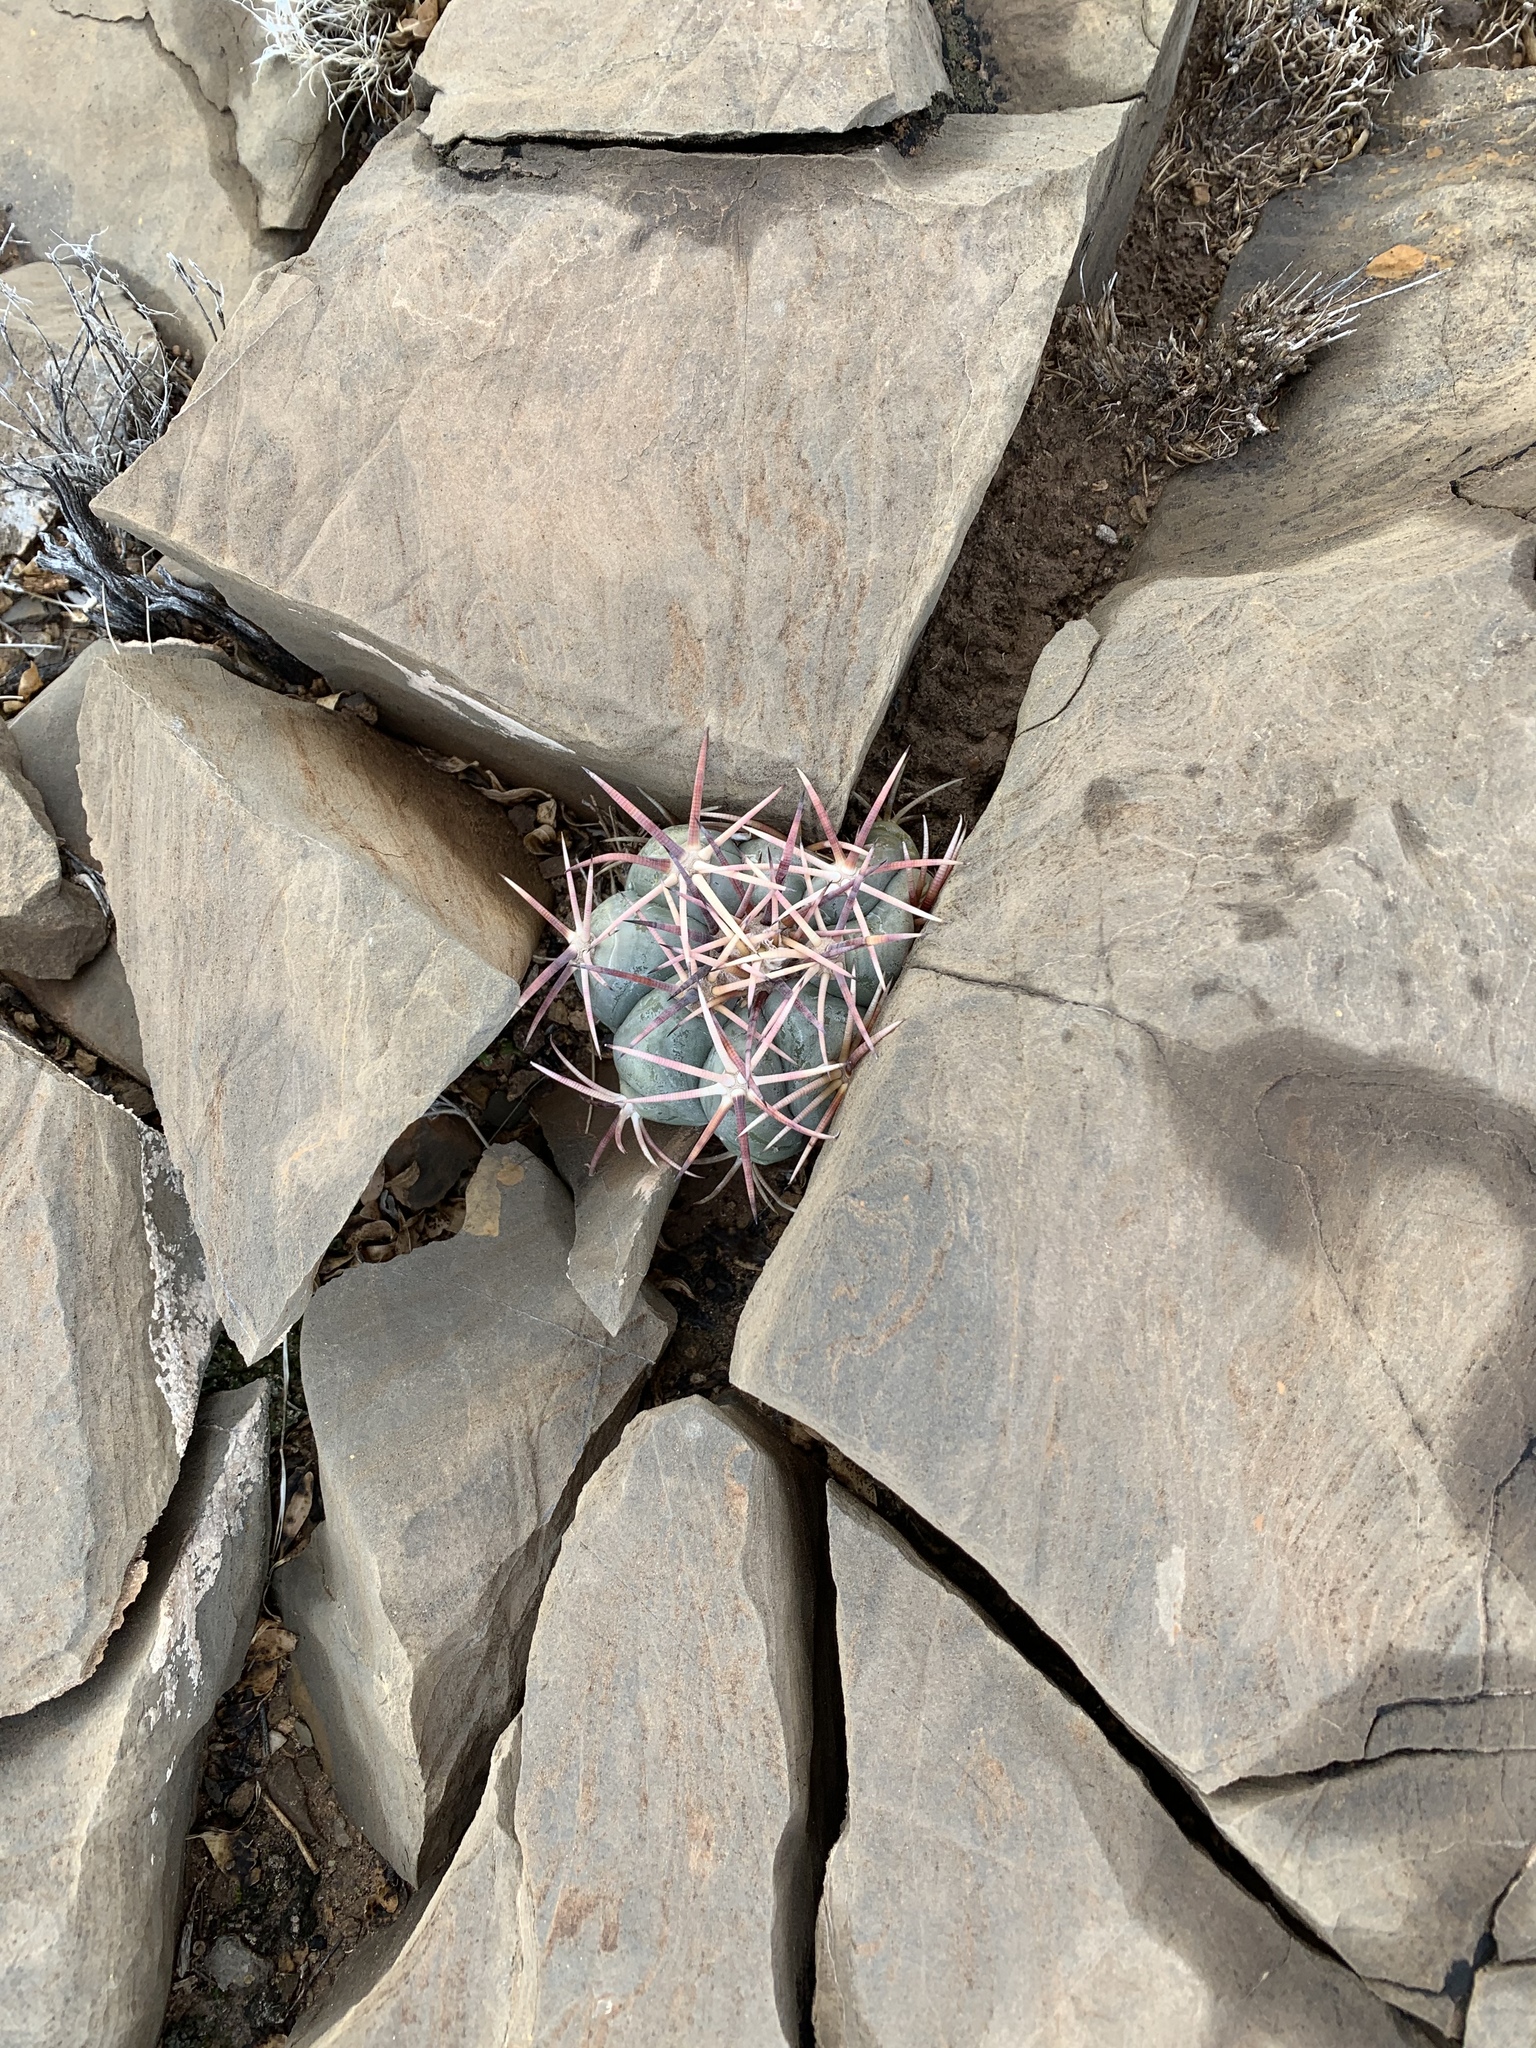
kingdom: Plantae
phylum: Tracheophyta
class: Magnoliopsida
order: Caryophyllales
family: Cactaceae
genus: Echinocactus
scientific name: Echinocactus horizonthalonius
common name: Devilshead
